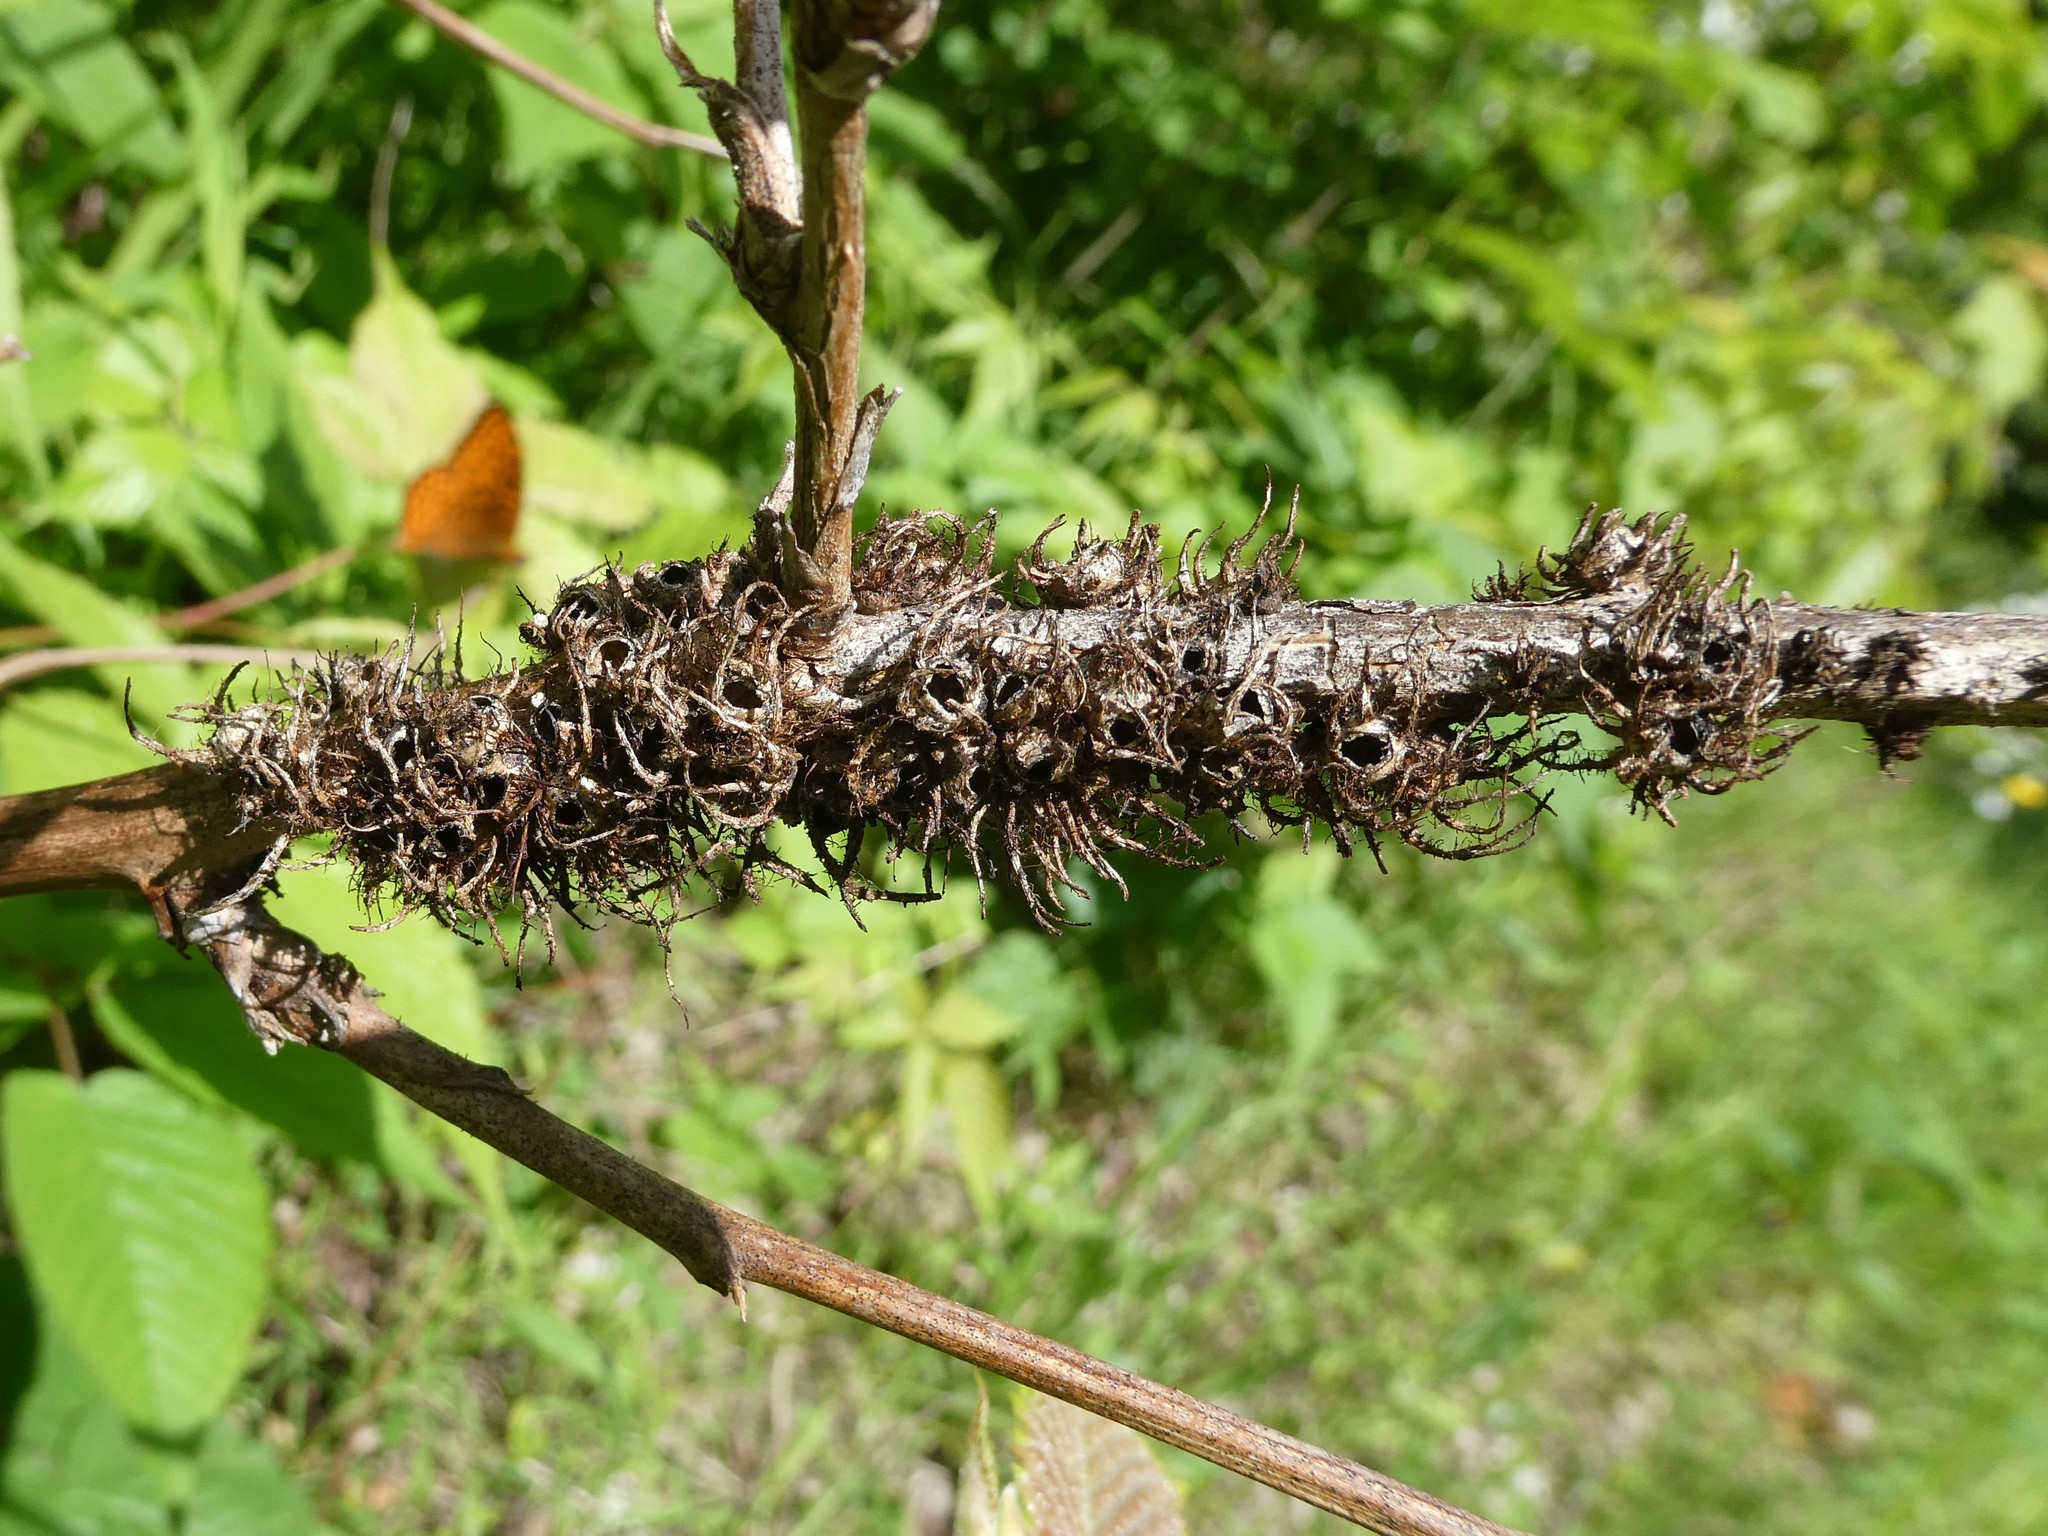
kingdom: Animalia
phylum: Arthropoda
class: Insecta
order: Hymenoptera
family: Cynipidae
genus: Diastrophus
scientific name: Diastrophus
